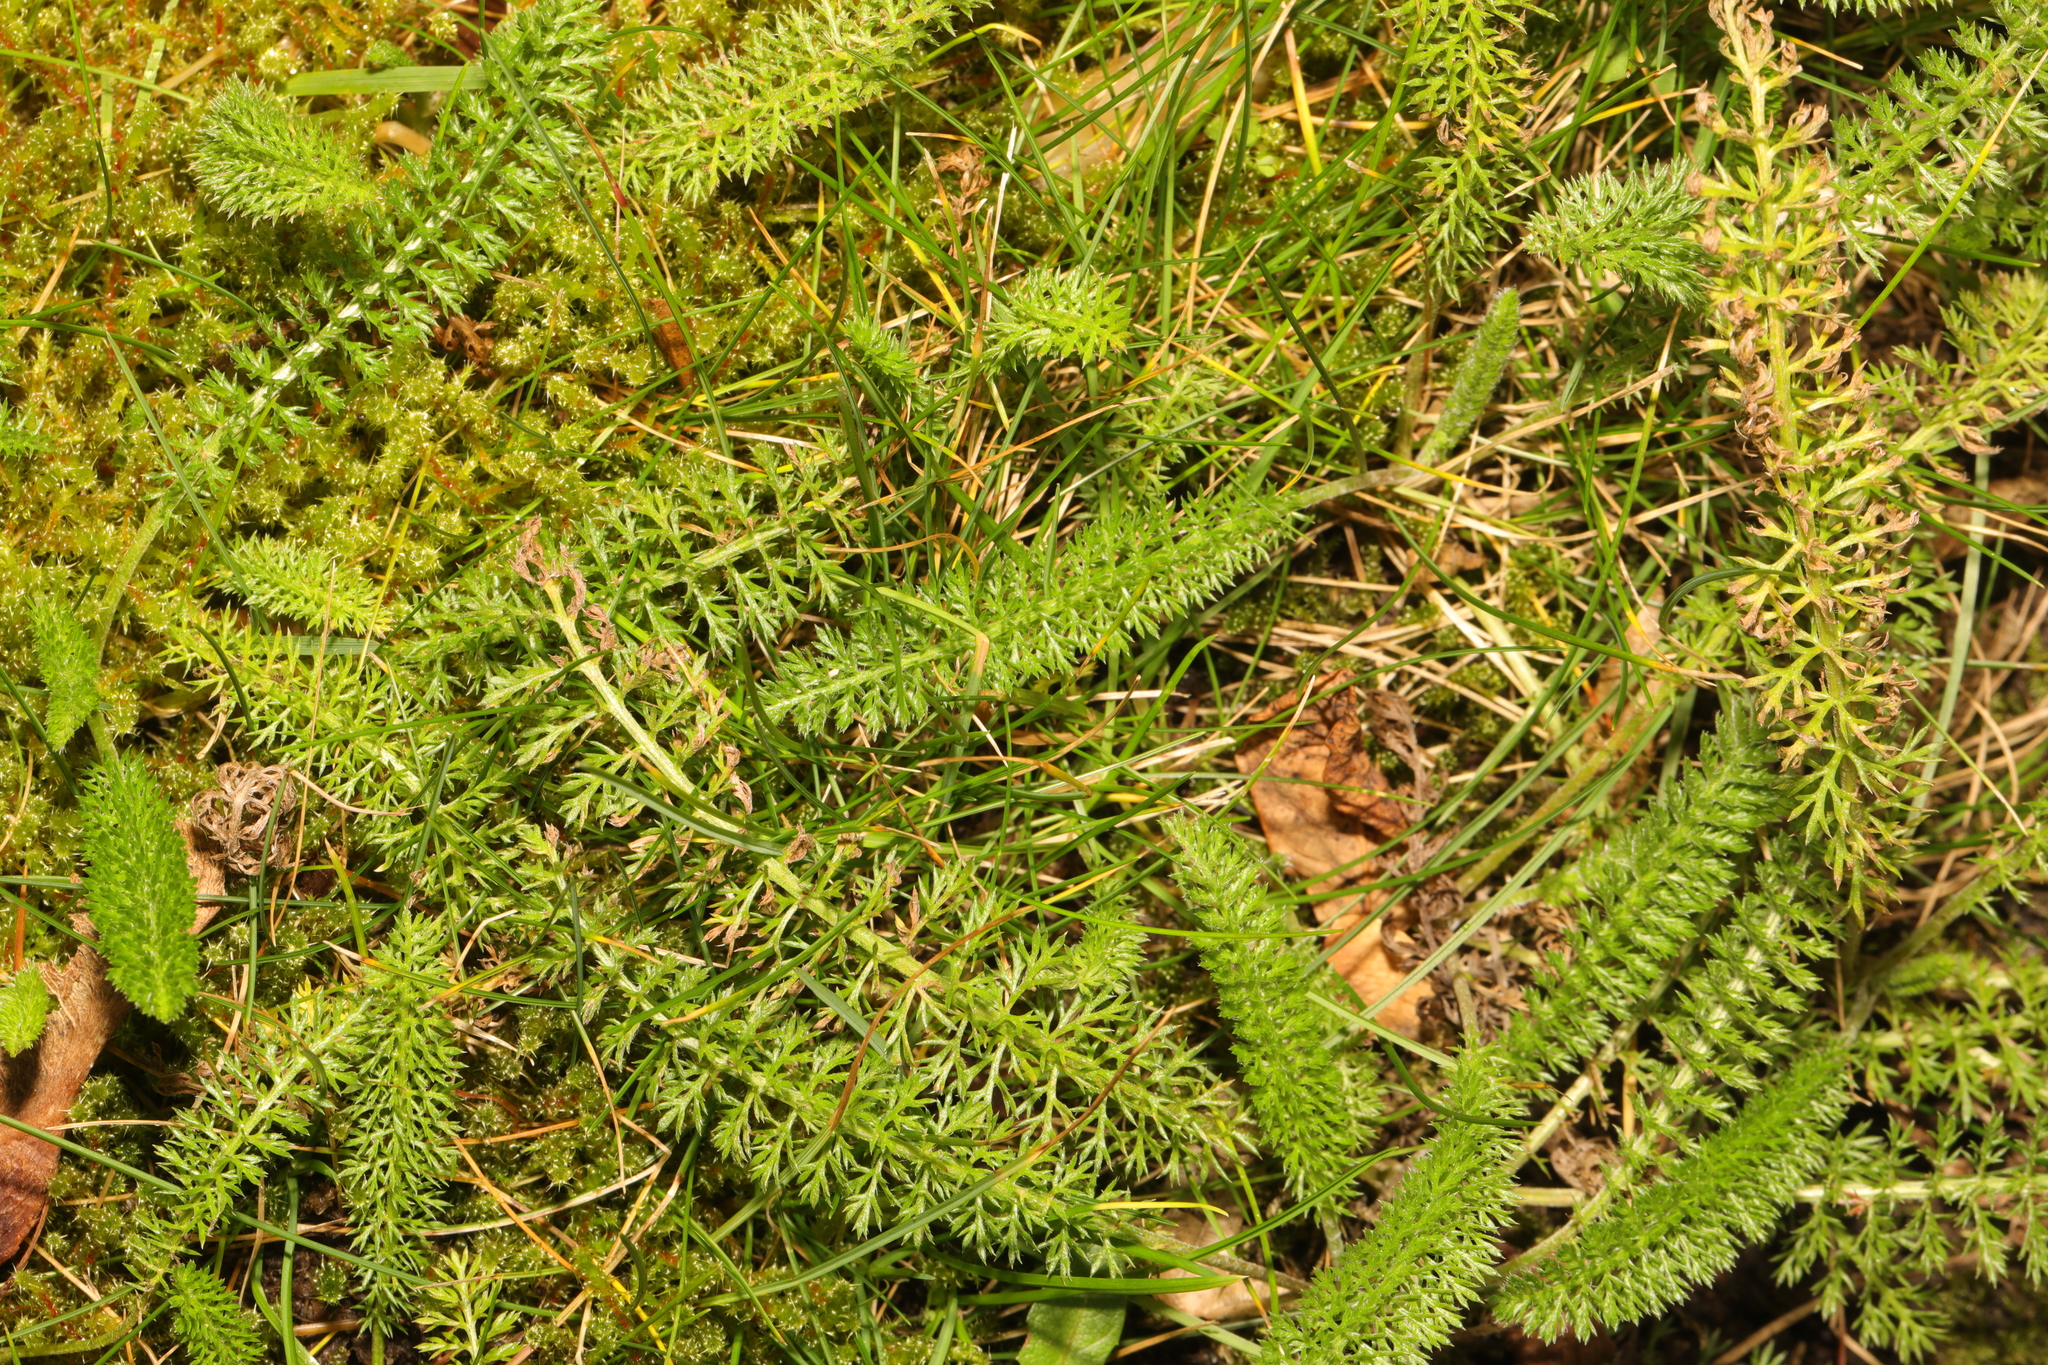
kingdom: Plantae
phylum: Tracheophyta
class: Magnoliopsida
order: Asterales
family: Asteraceae
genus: Achillea
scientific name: Achillea millefolium
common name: Yarrow
